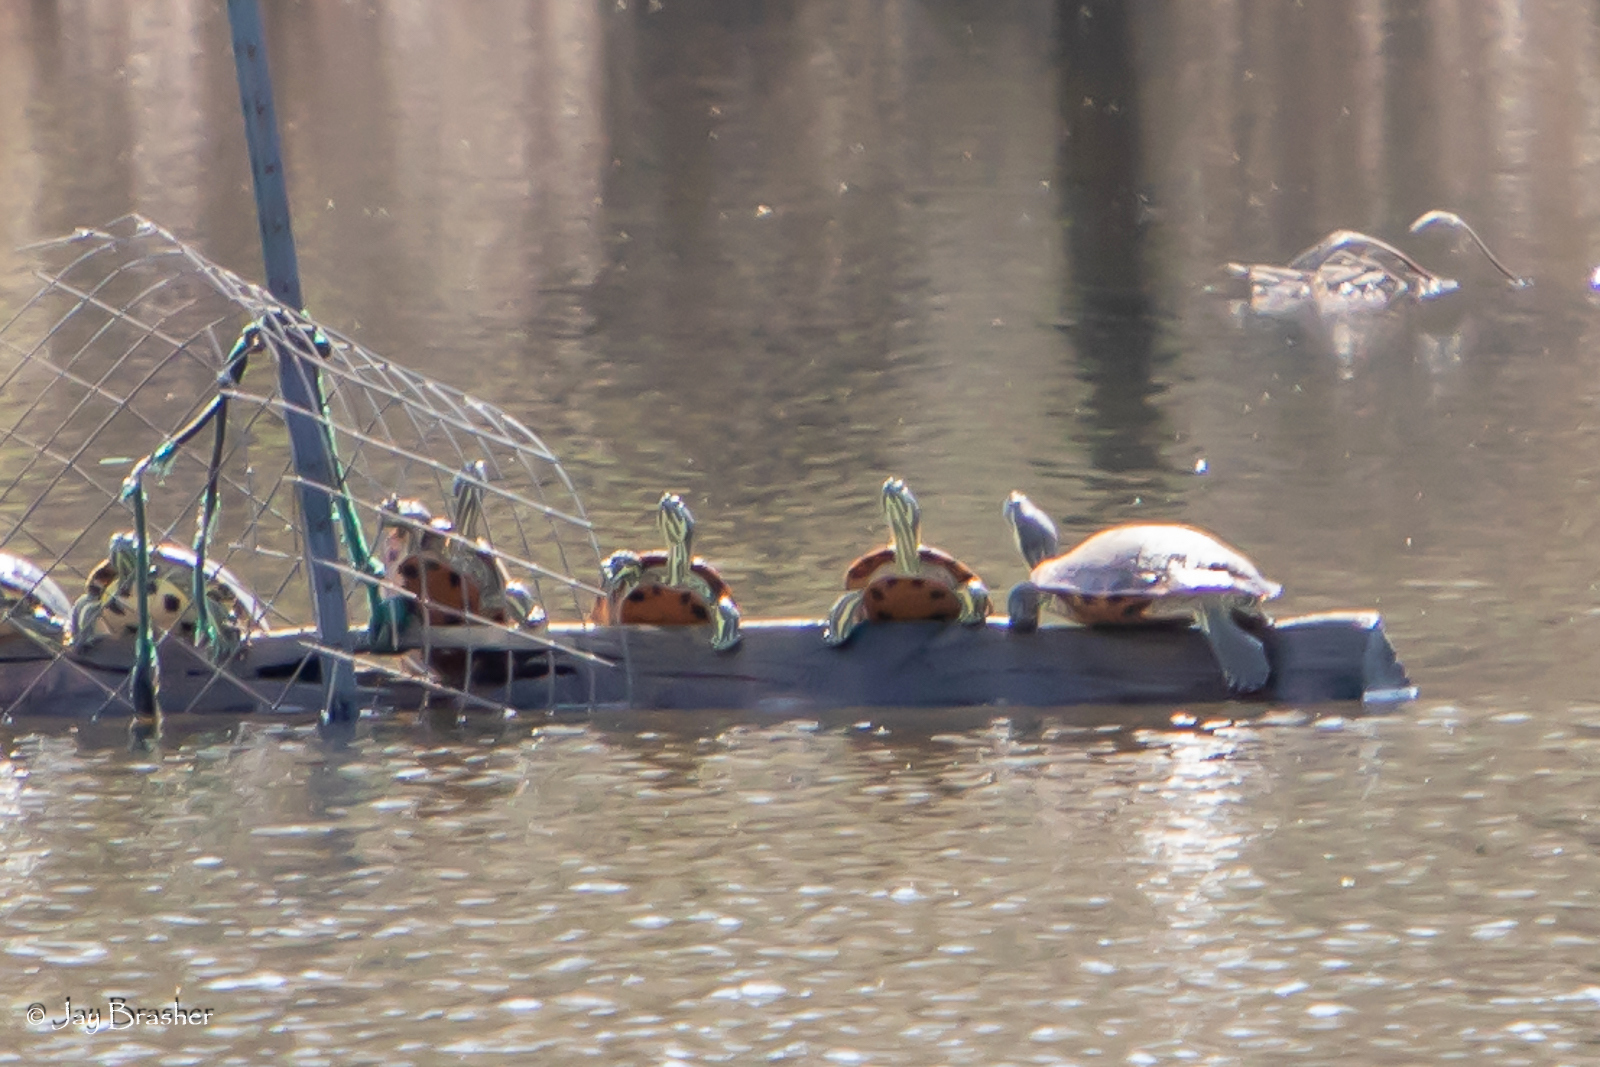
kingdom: Animalia
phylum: Chordata
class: Testudines
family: Emydidae
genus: Trachemys
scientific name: Trachemys scripta
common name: Slider
